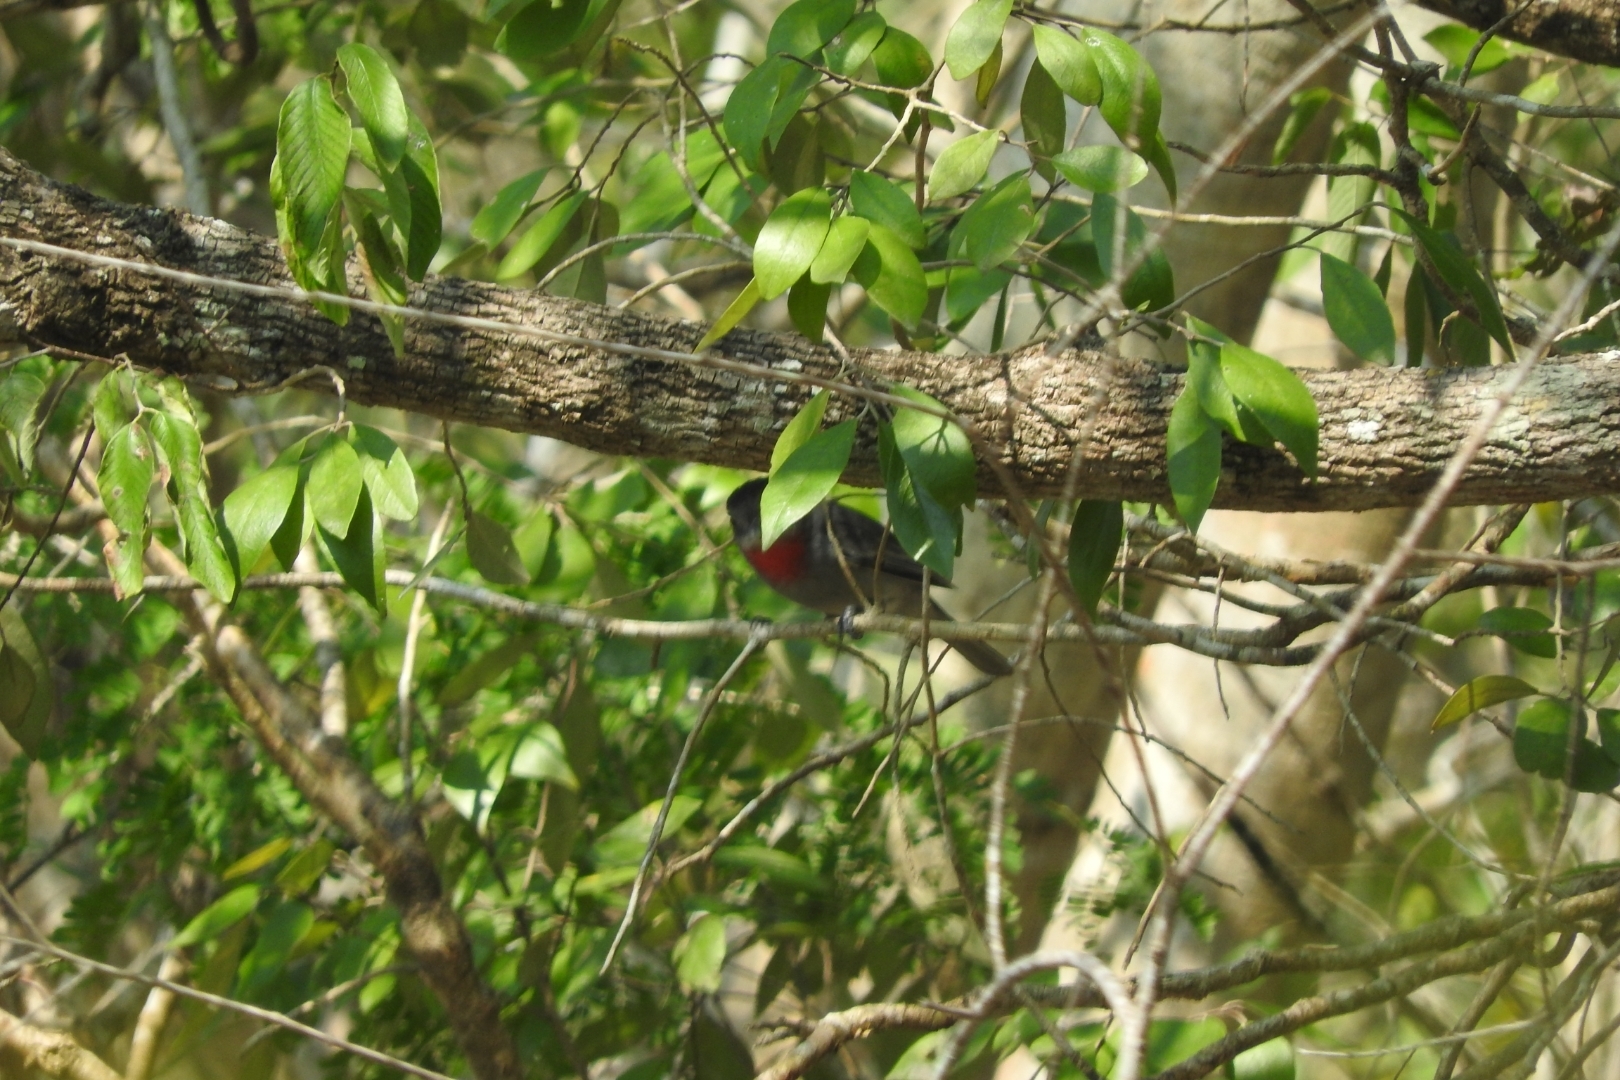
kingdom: Animalia
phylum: Chordata
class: Aves
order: Passeriformes
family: Cotingidae
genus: Pachyramphus
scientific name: Pachyramphus aglaiae
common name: Rose-throated becard
